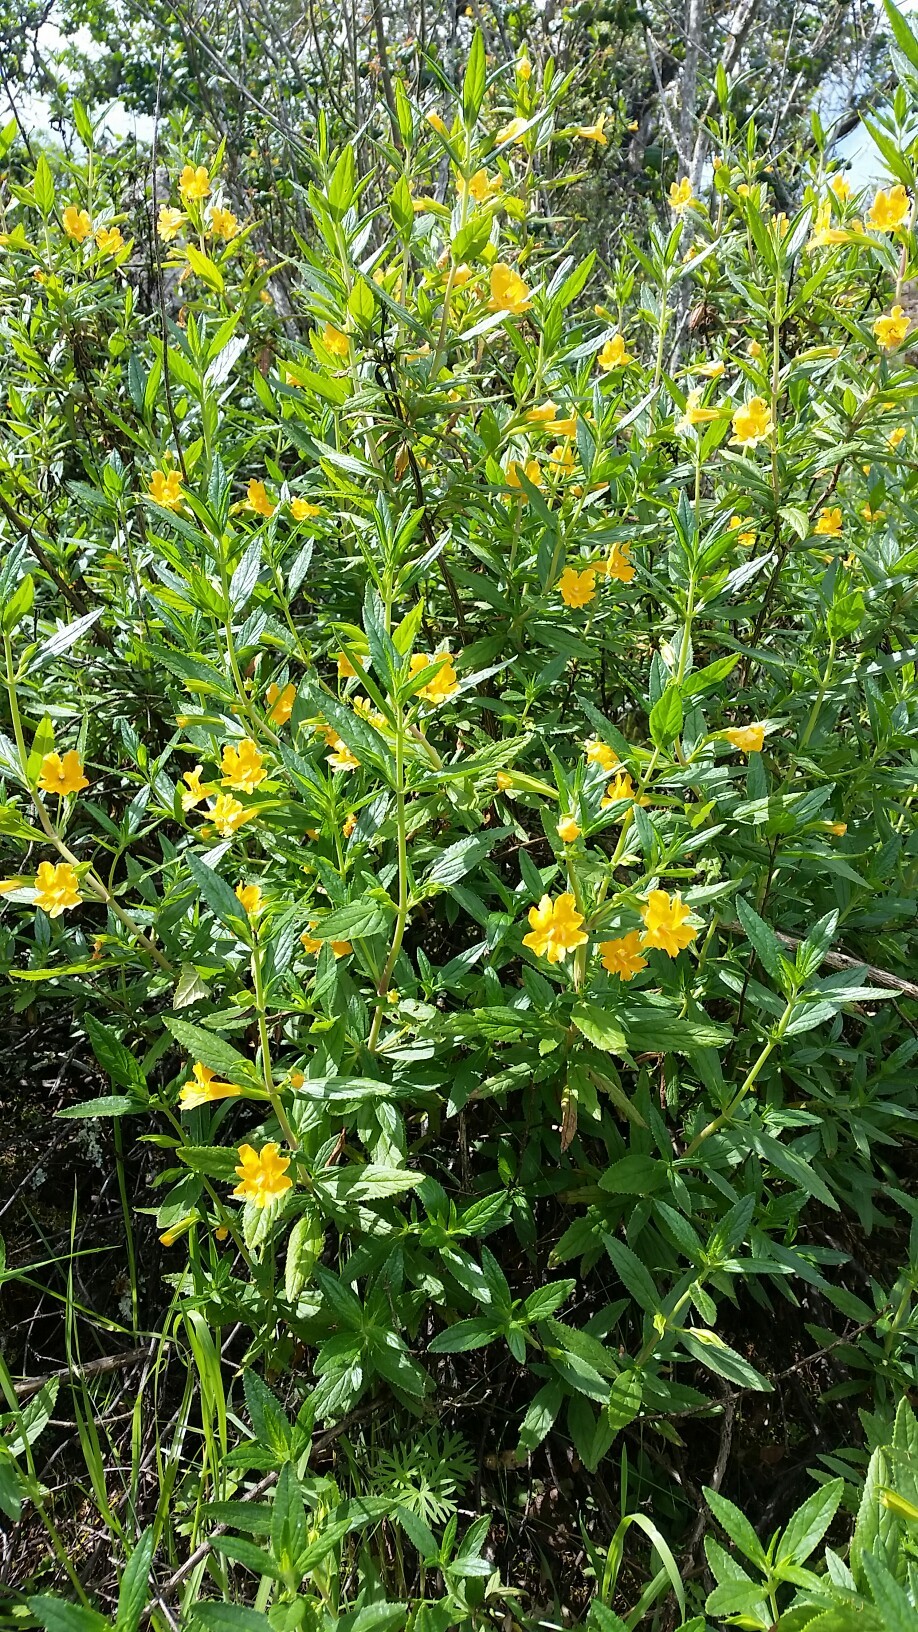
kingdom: Plantae
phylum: Tracheophyta
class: Magnoliopsida
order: Lamiales
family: Phrymaceae
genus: Diplacus
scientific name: Diplacus aurantiacus
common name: Bush monkey-flower
